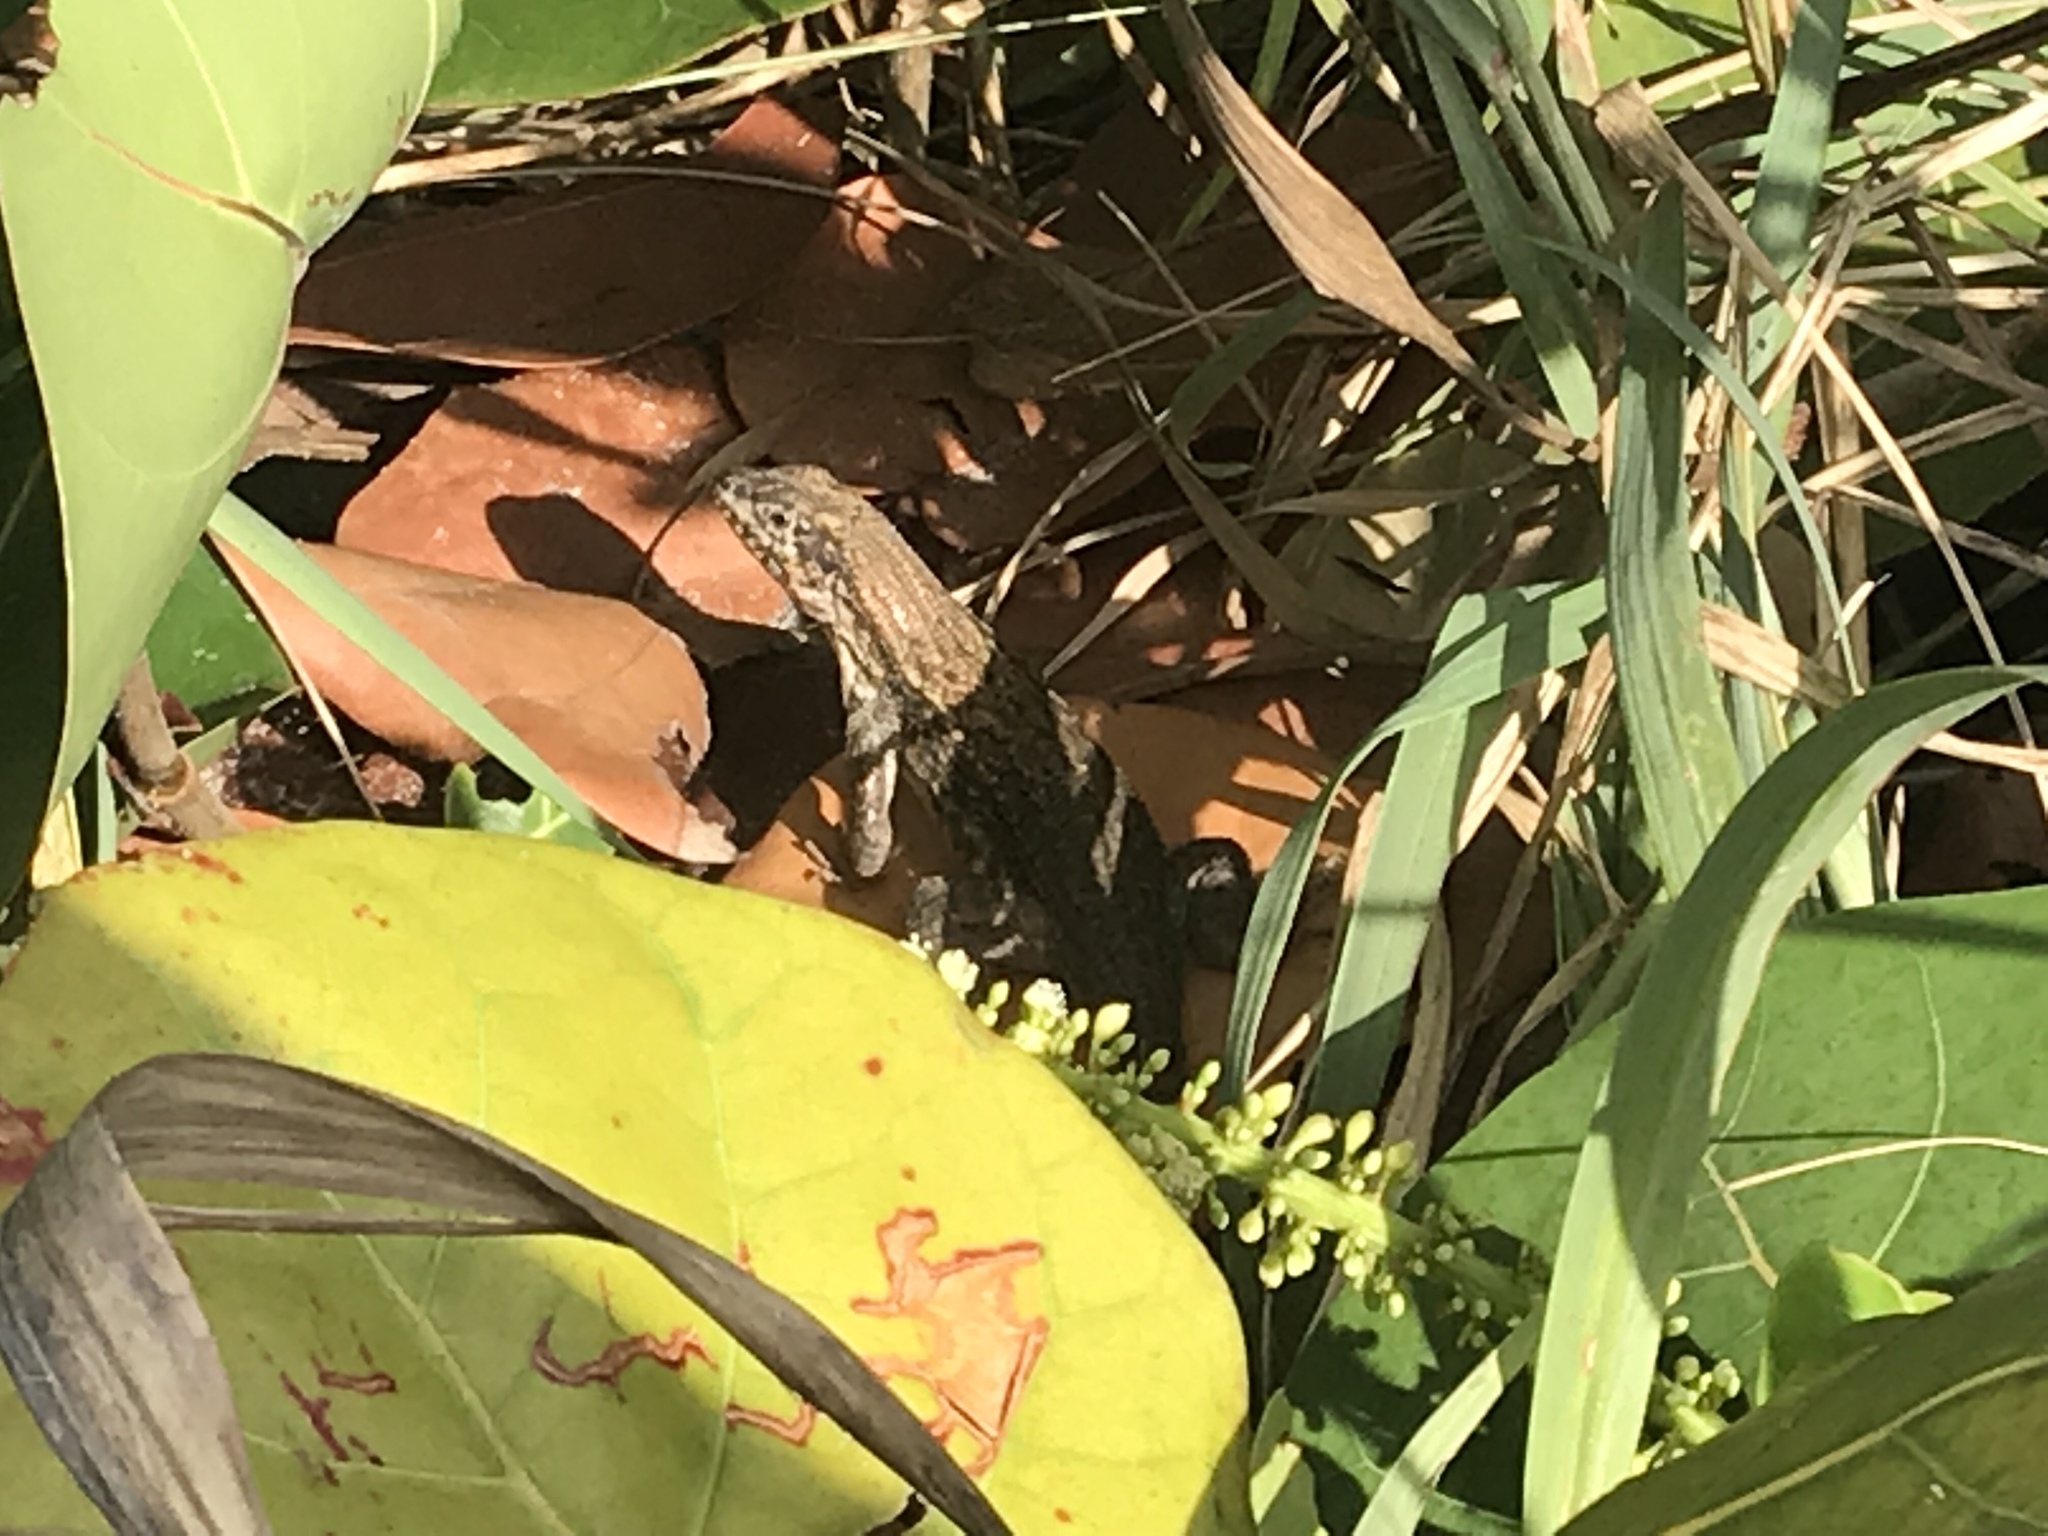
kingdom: Animalia
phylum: Chordata
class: Squamata
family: Leiocephalidae
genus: Leiocephalus
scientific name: Leiocephalus carinatus
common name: Northern curly-tailed lizard
